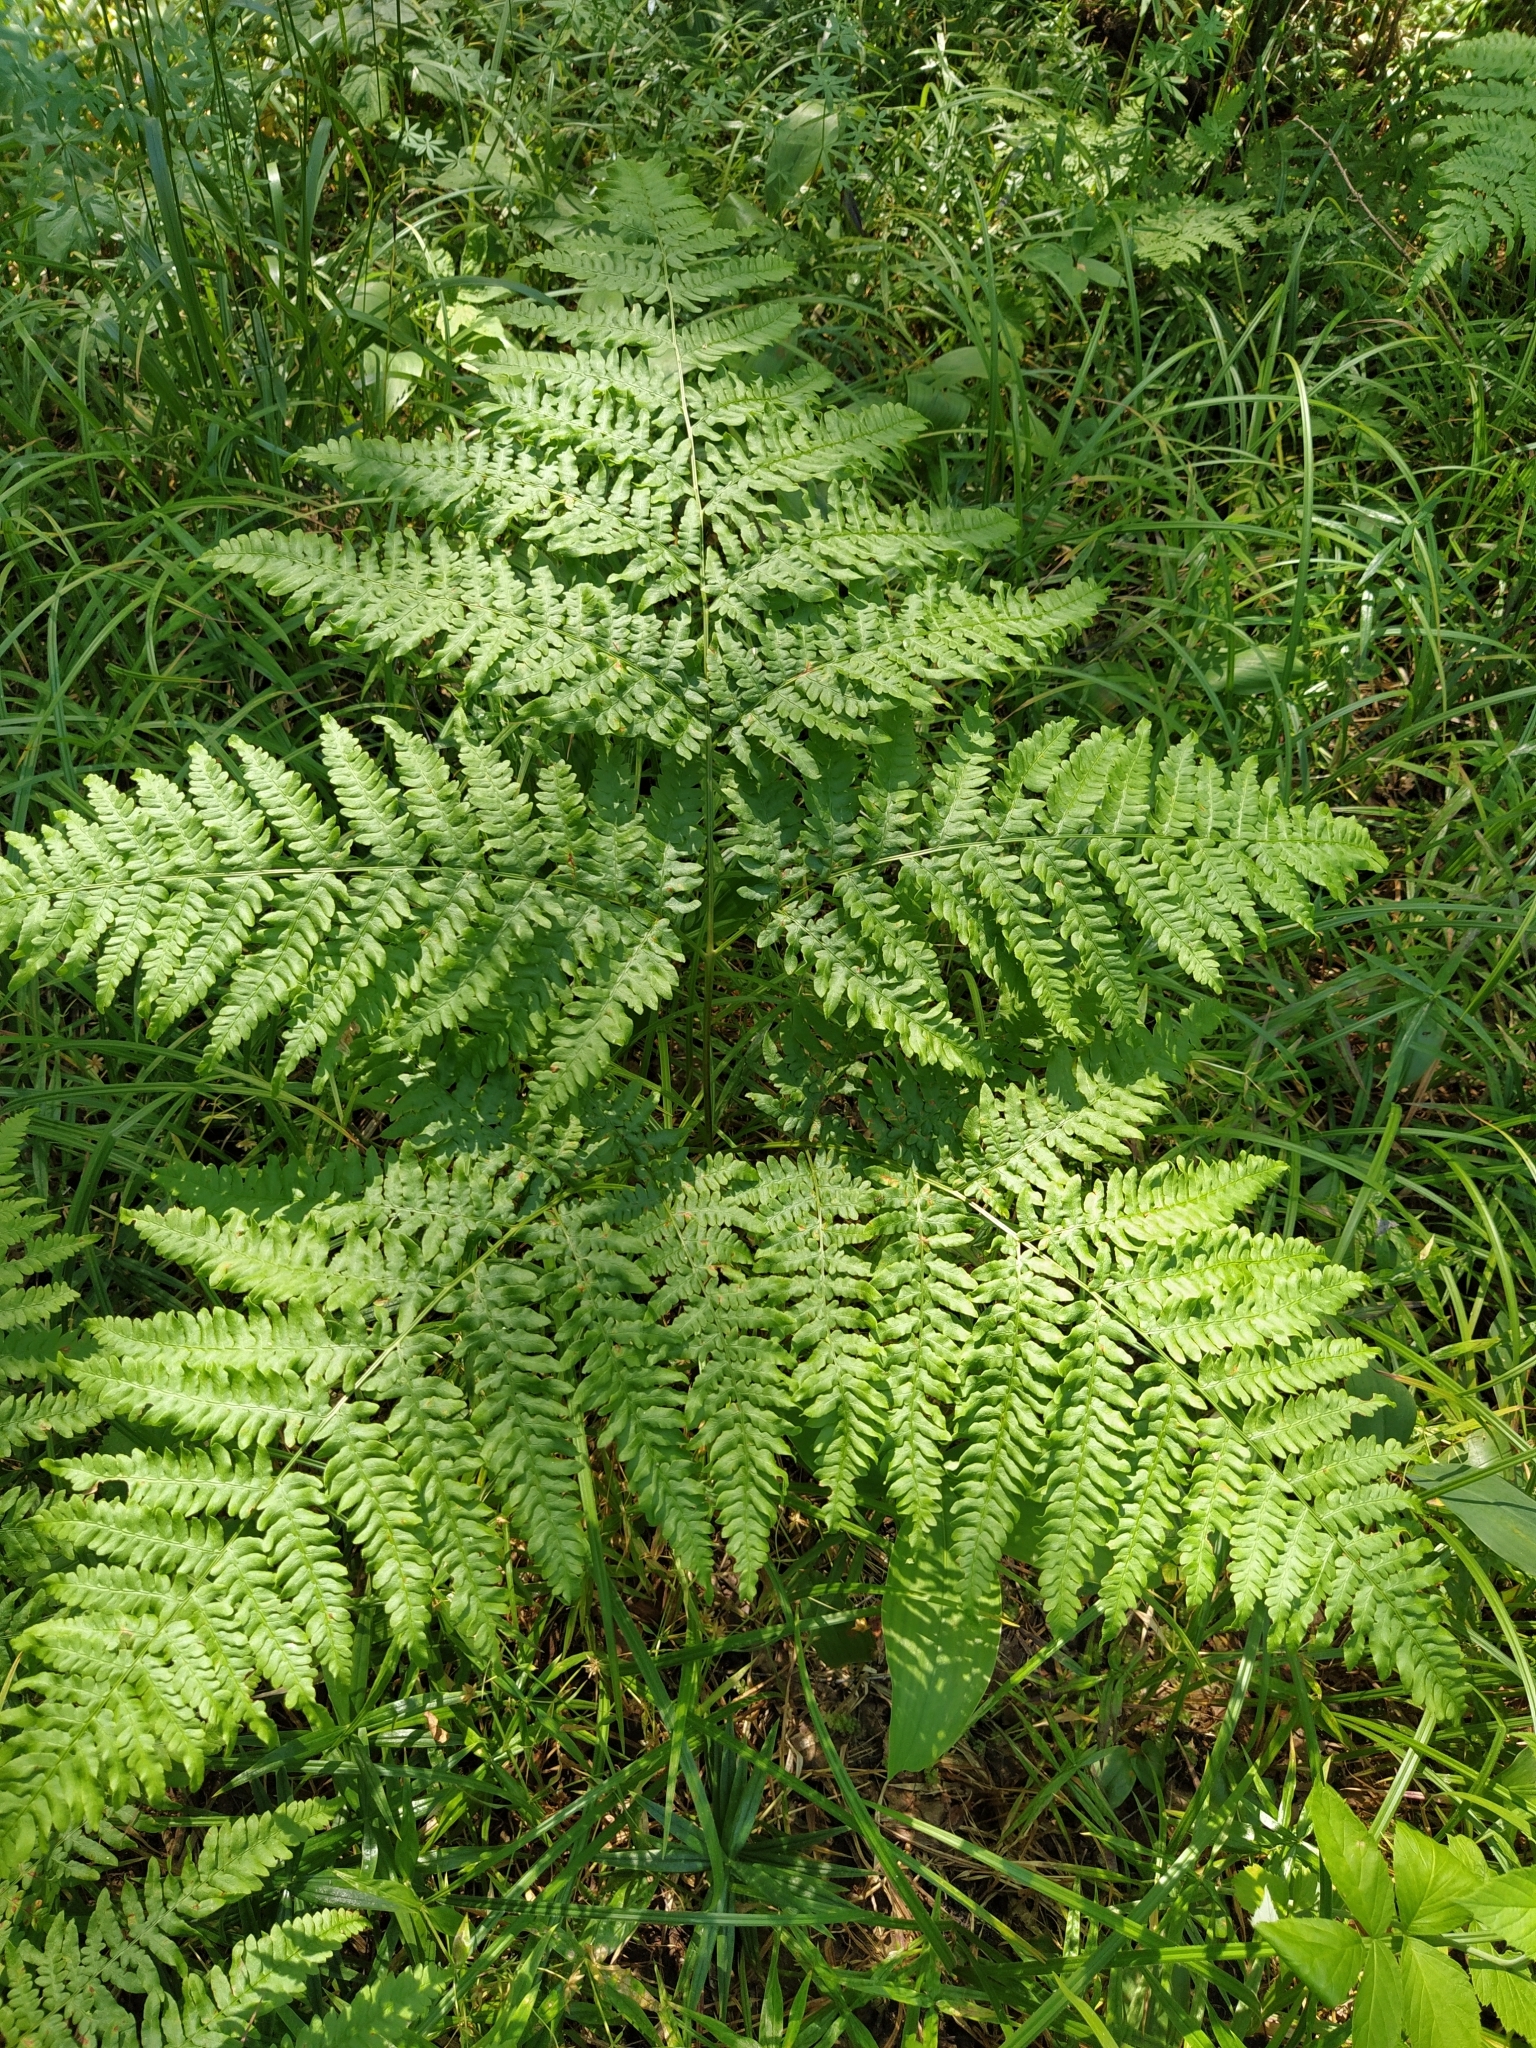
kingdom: Plantae
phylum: Tracheophyta
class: Polypodiopsida
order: Polypodiales
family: Dennstaedtiaceae
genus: Pteridium
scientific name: Pteridium aquilinum
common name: Bracken
